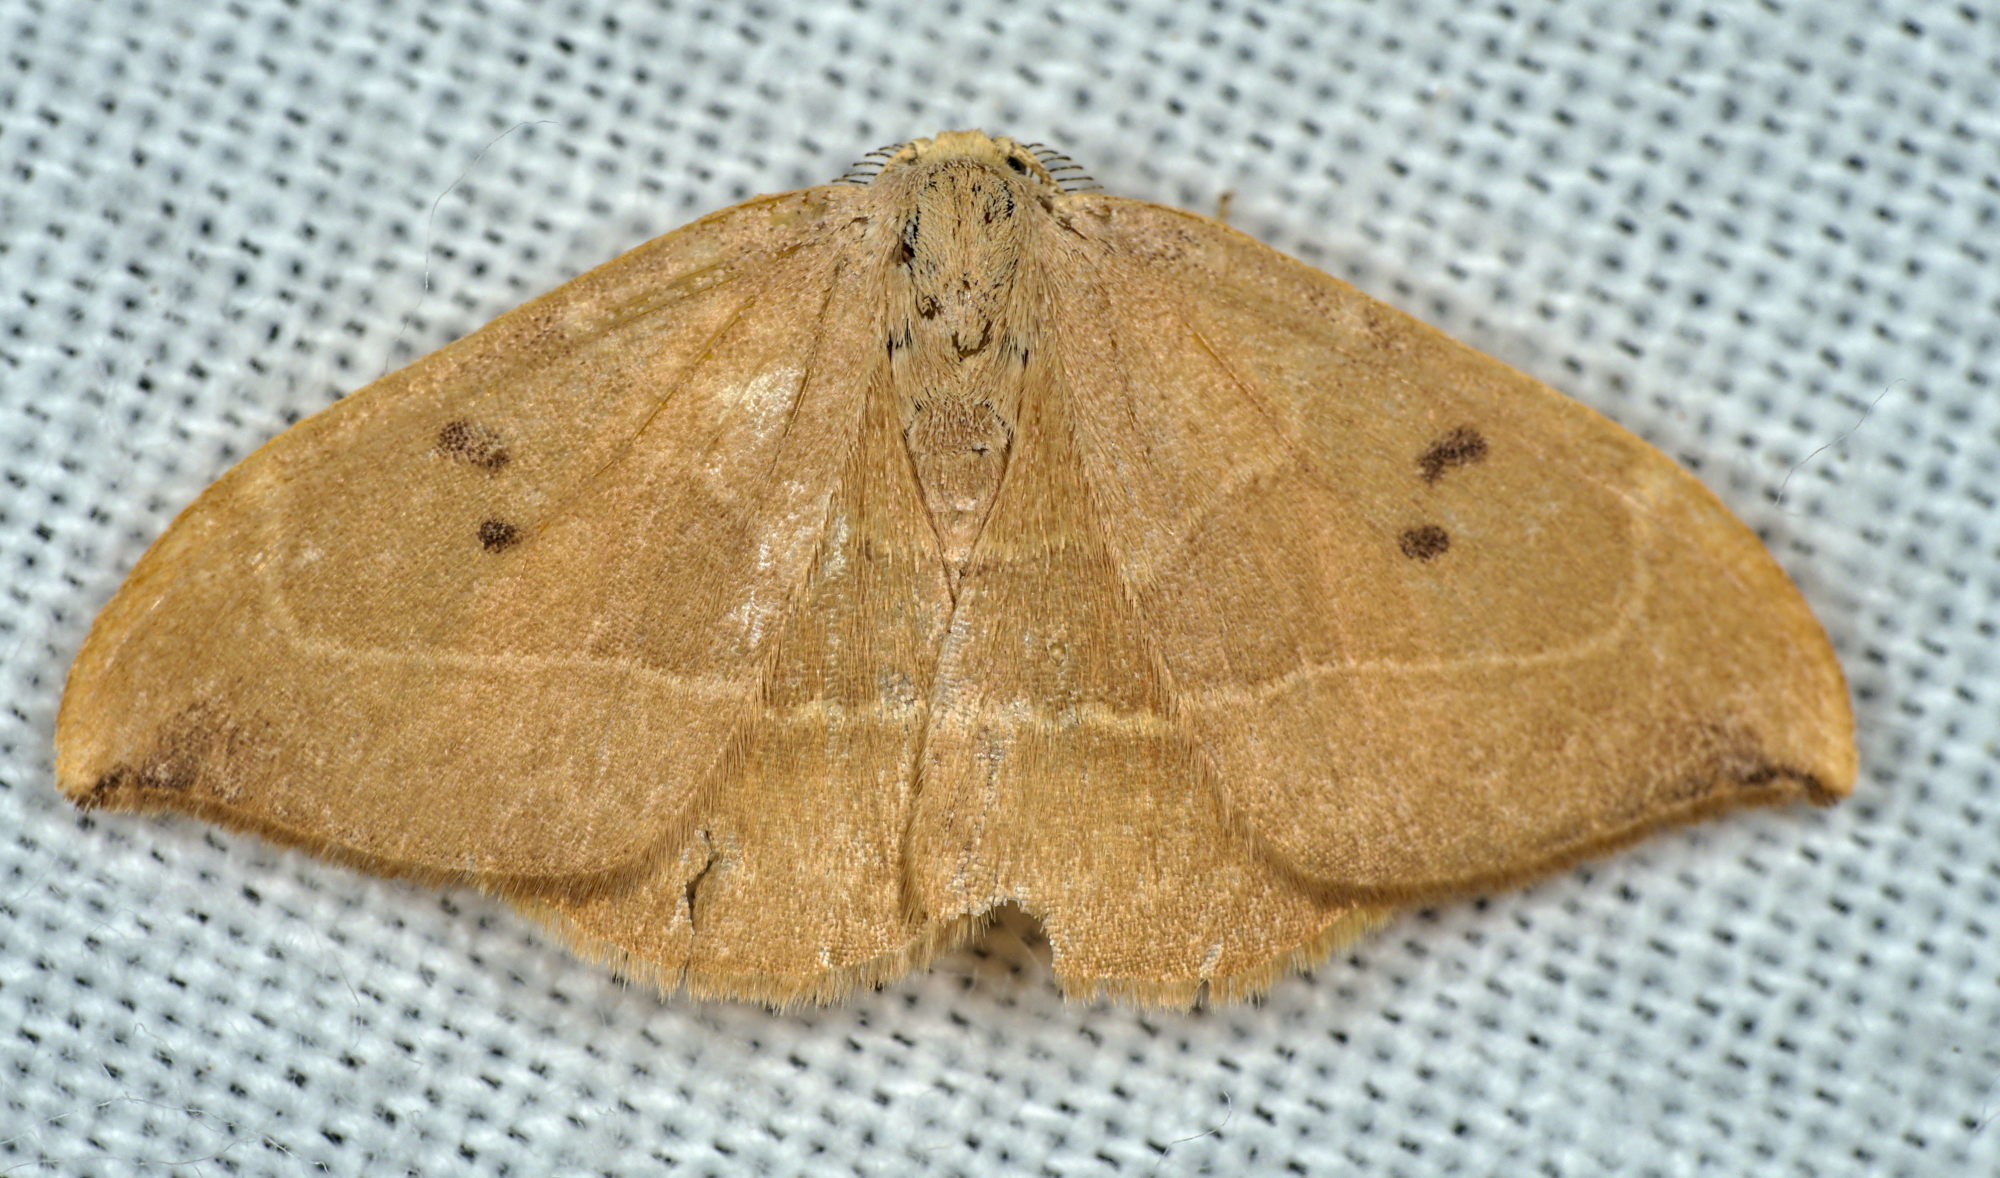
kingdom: Animalia
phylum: Arthropoda
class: Insecta
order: Lepidoptera
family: Drepanidae
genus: Watsonalla
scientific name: Watsonalla binaria
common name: Oak hook-tip
